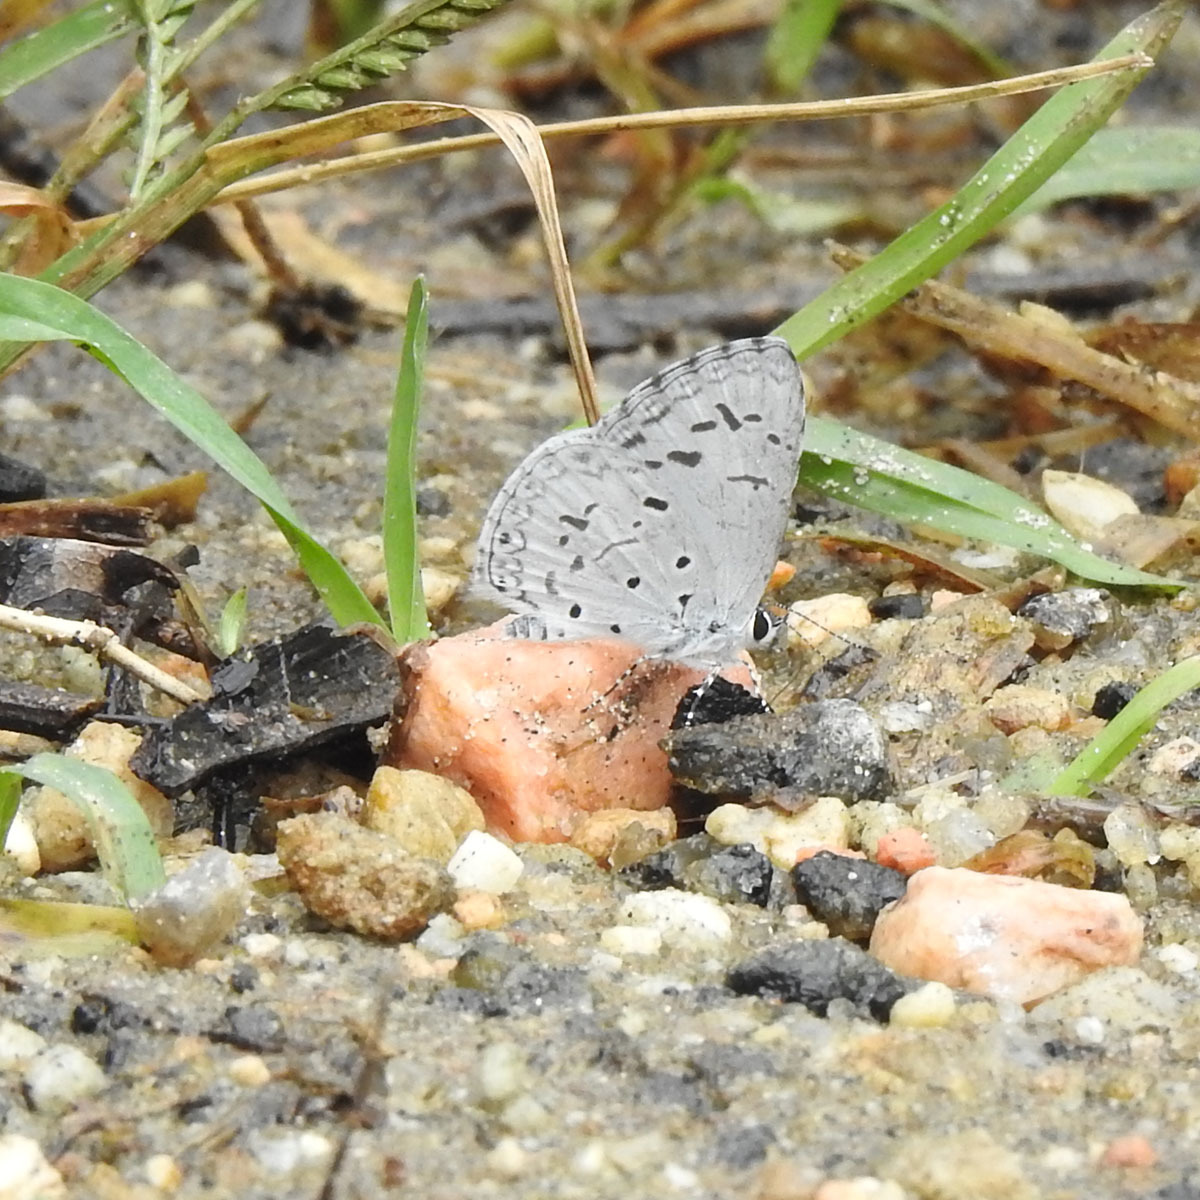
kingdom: Animalia
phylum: Arthropoda
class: Insecta
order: Lepidoptera
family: Lycaenidae
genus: Acytolepis
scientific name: Acytolepis puspa
